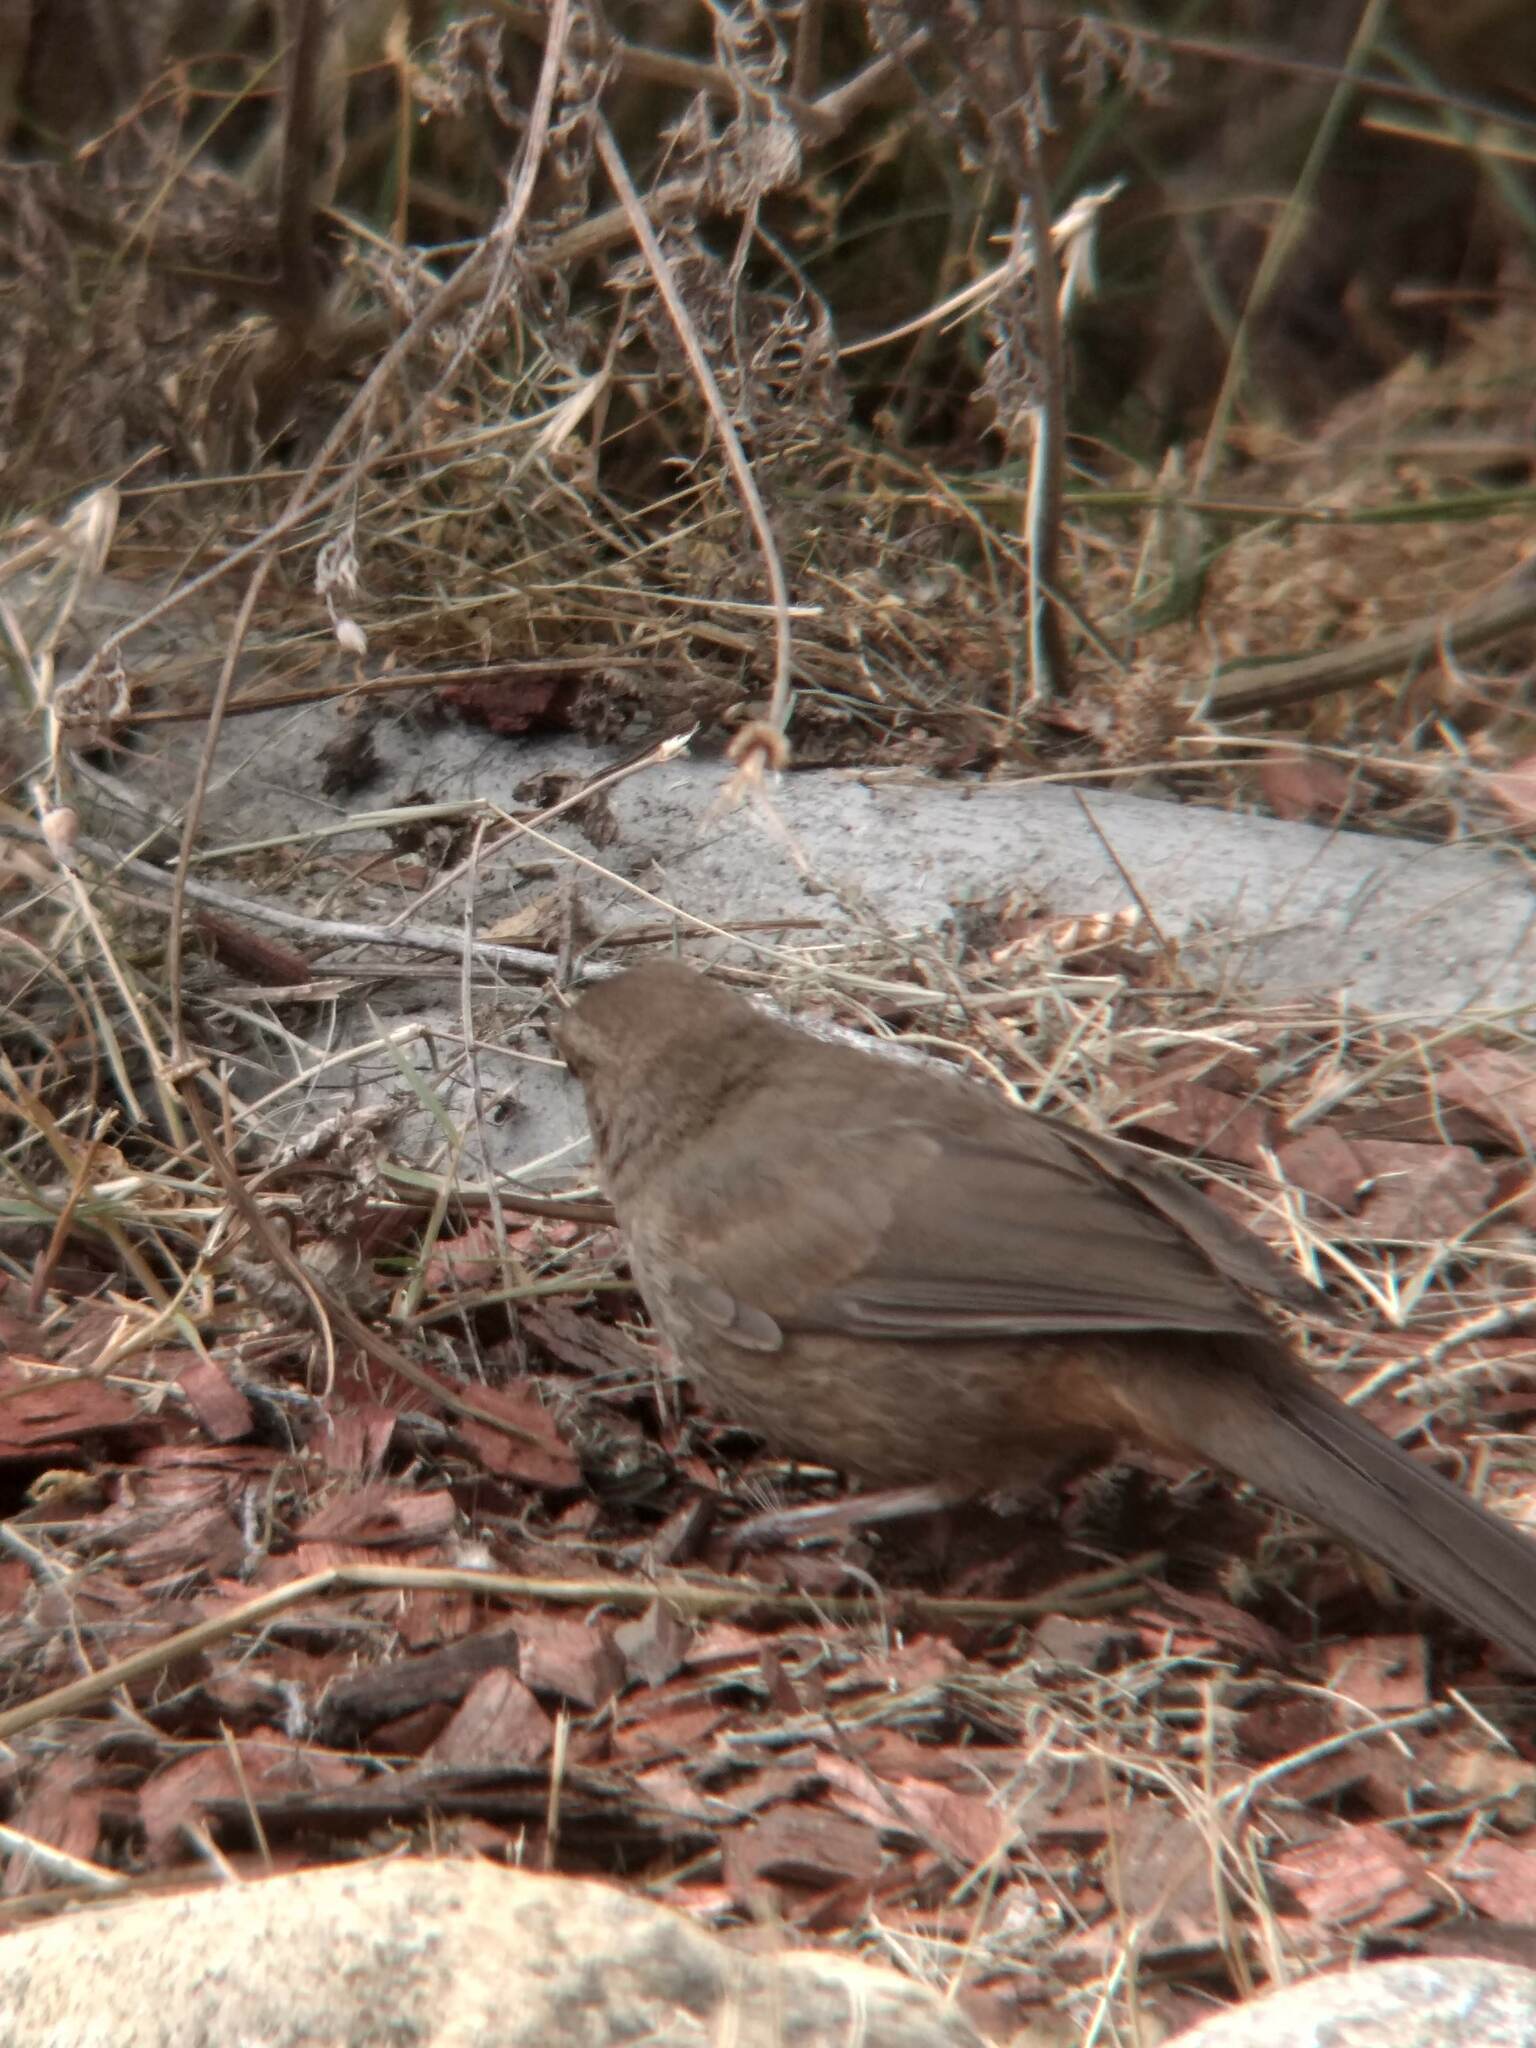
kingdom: Animalia
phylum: Chordata
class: Aves
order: Passeriformes
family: Passerellidae
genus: Melozone
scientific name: Melozone crissalis
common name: California towhee
